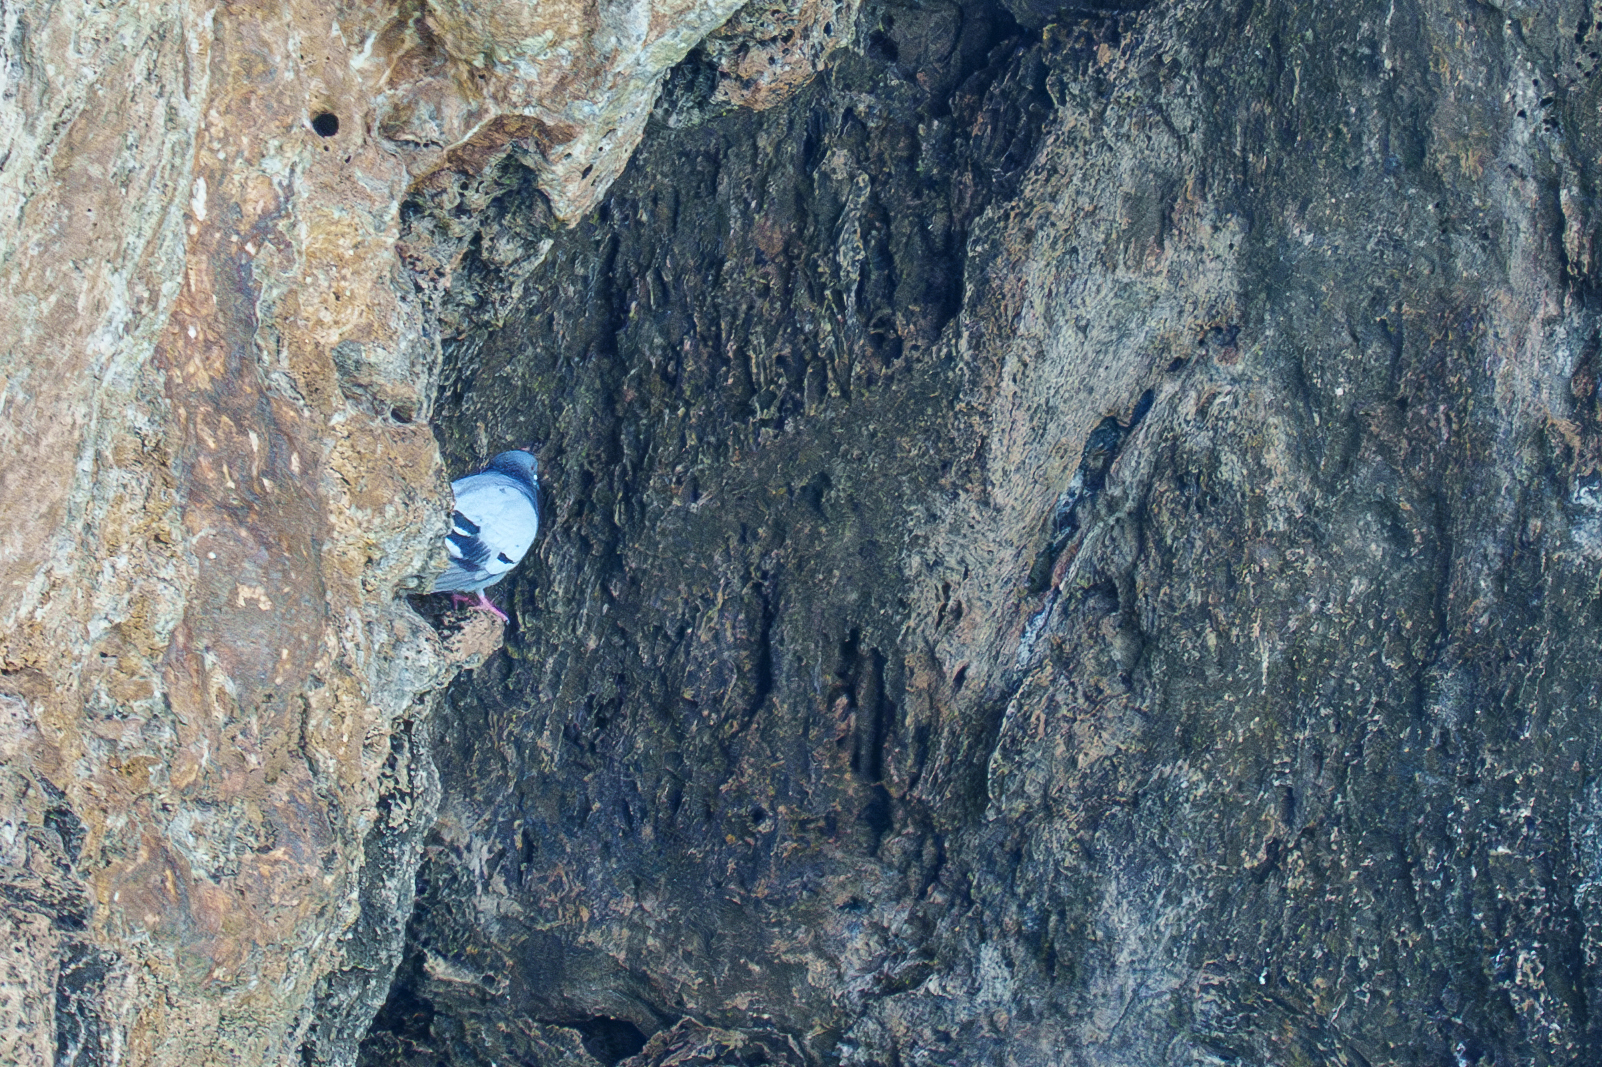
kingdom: Animalia
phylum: Chordata
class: Aves
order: Columbiformes
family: Columbidae
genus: Columba
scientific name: Columba livia
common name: Rock pigeon
